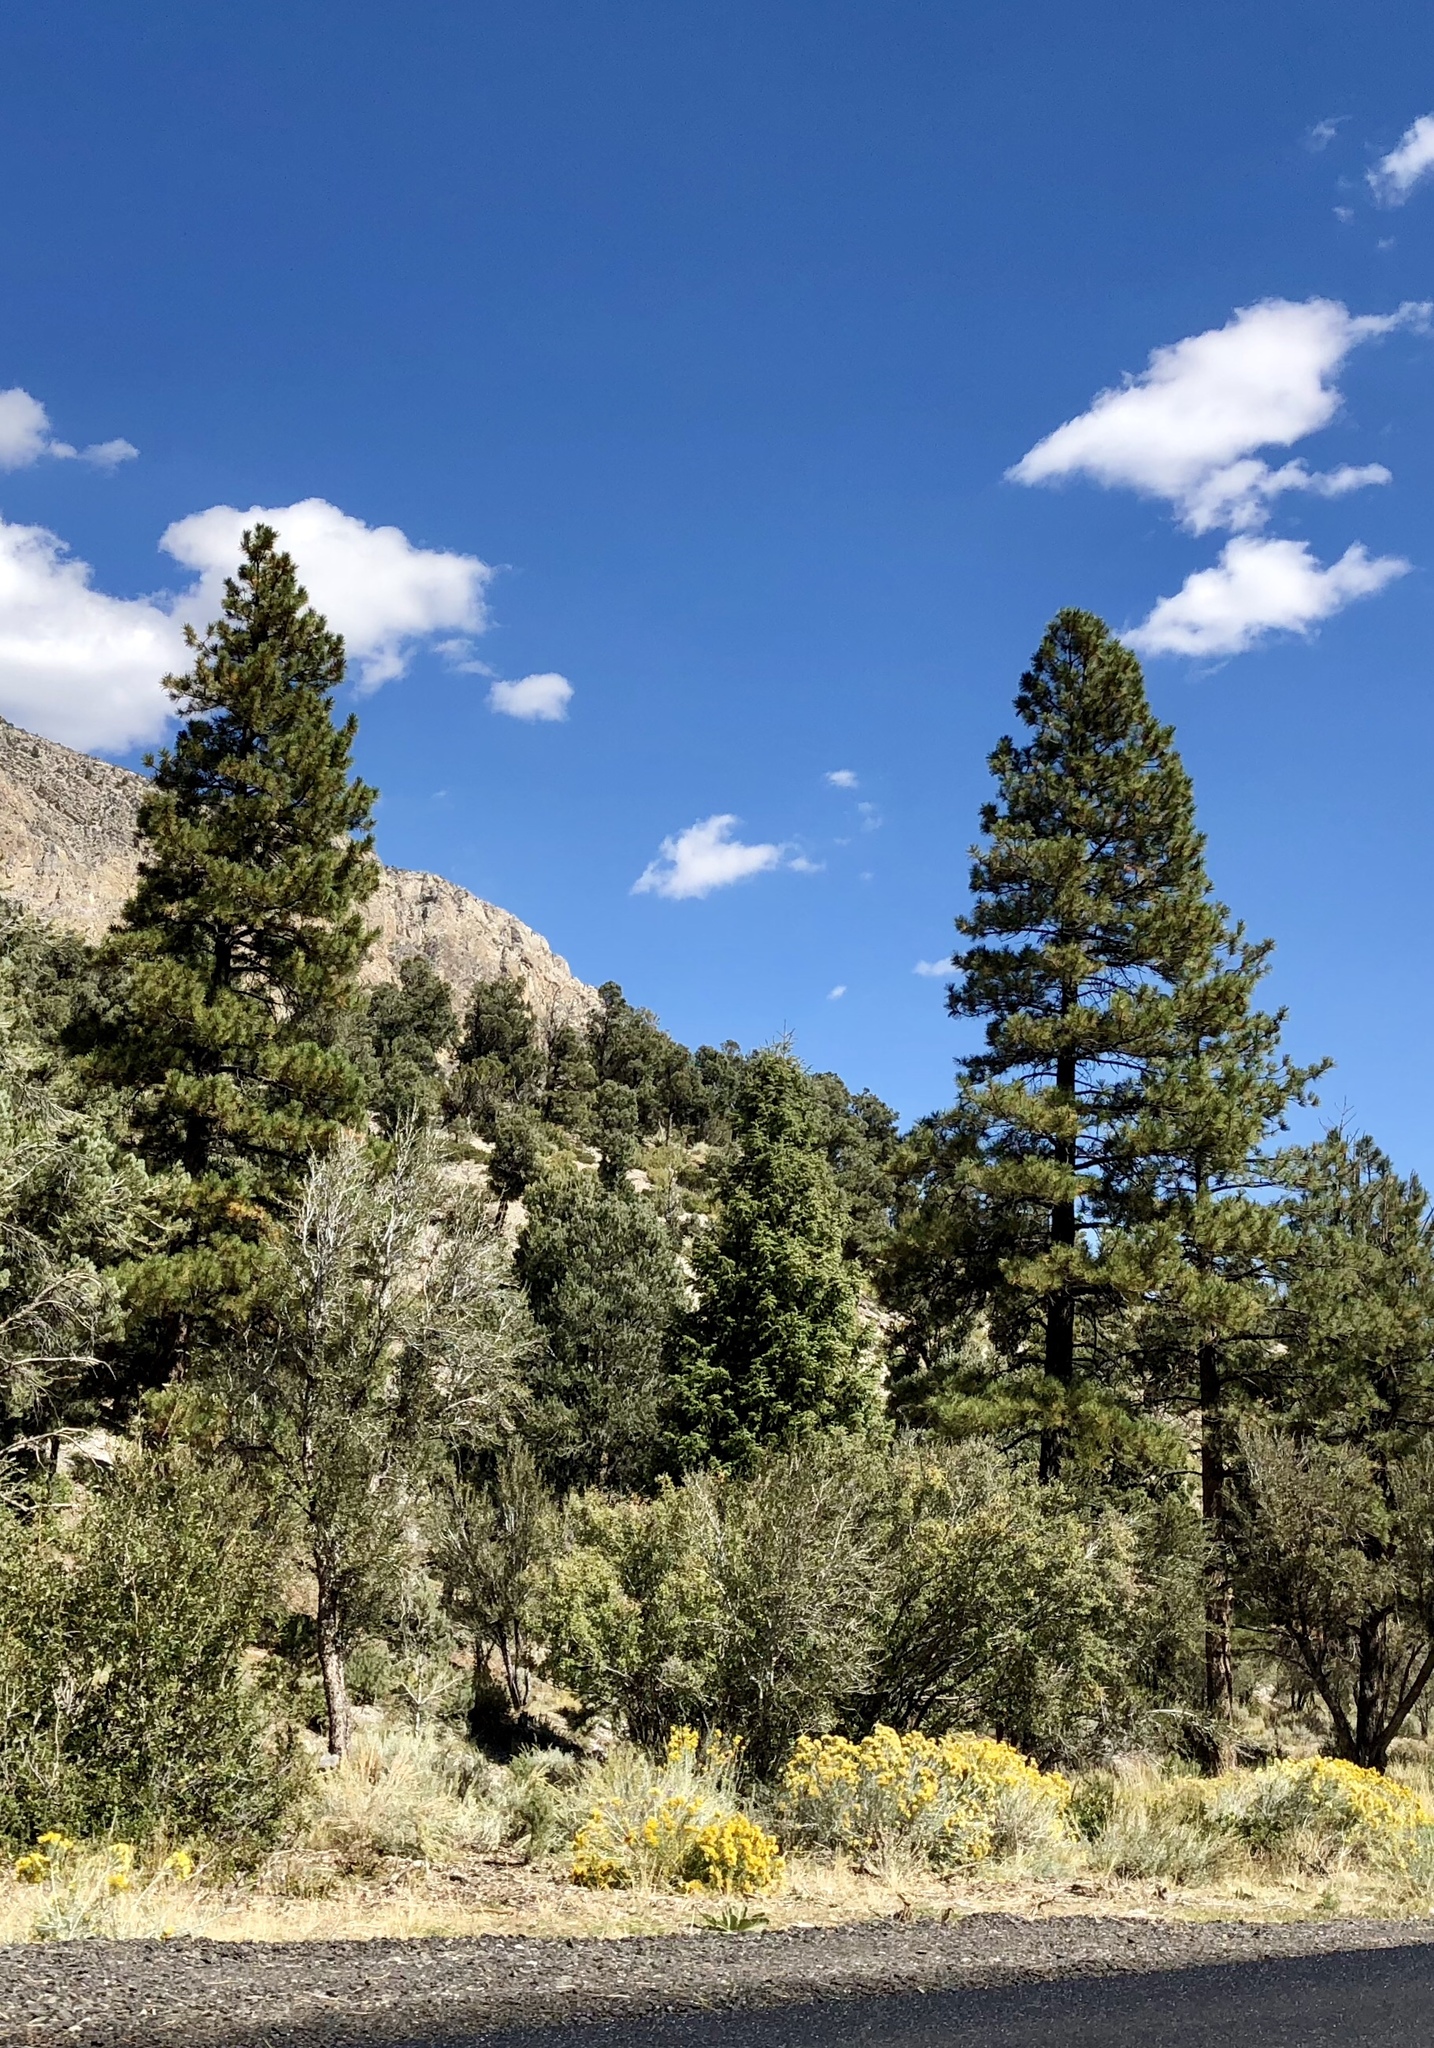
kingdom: Plantae
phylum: Tracheophyta
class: Pinopsida
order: Pinales
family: Pinaceae
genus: Pinus
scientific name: Pinus ponderosa
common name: Western yellow-pine
